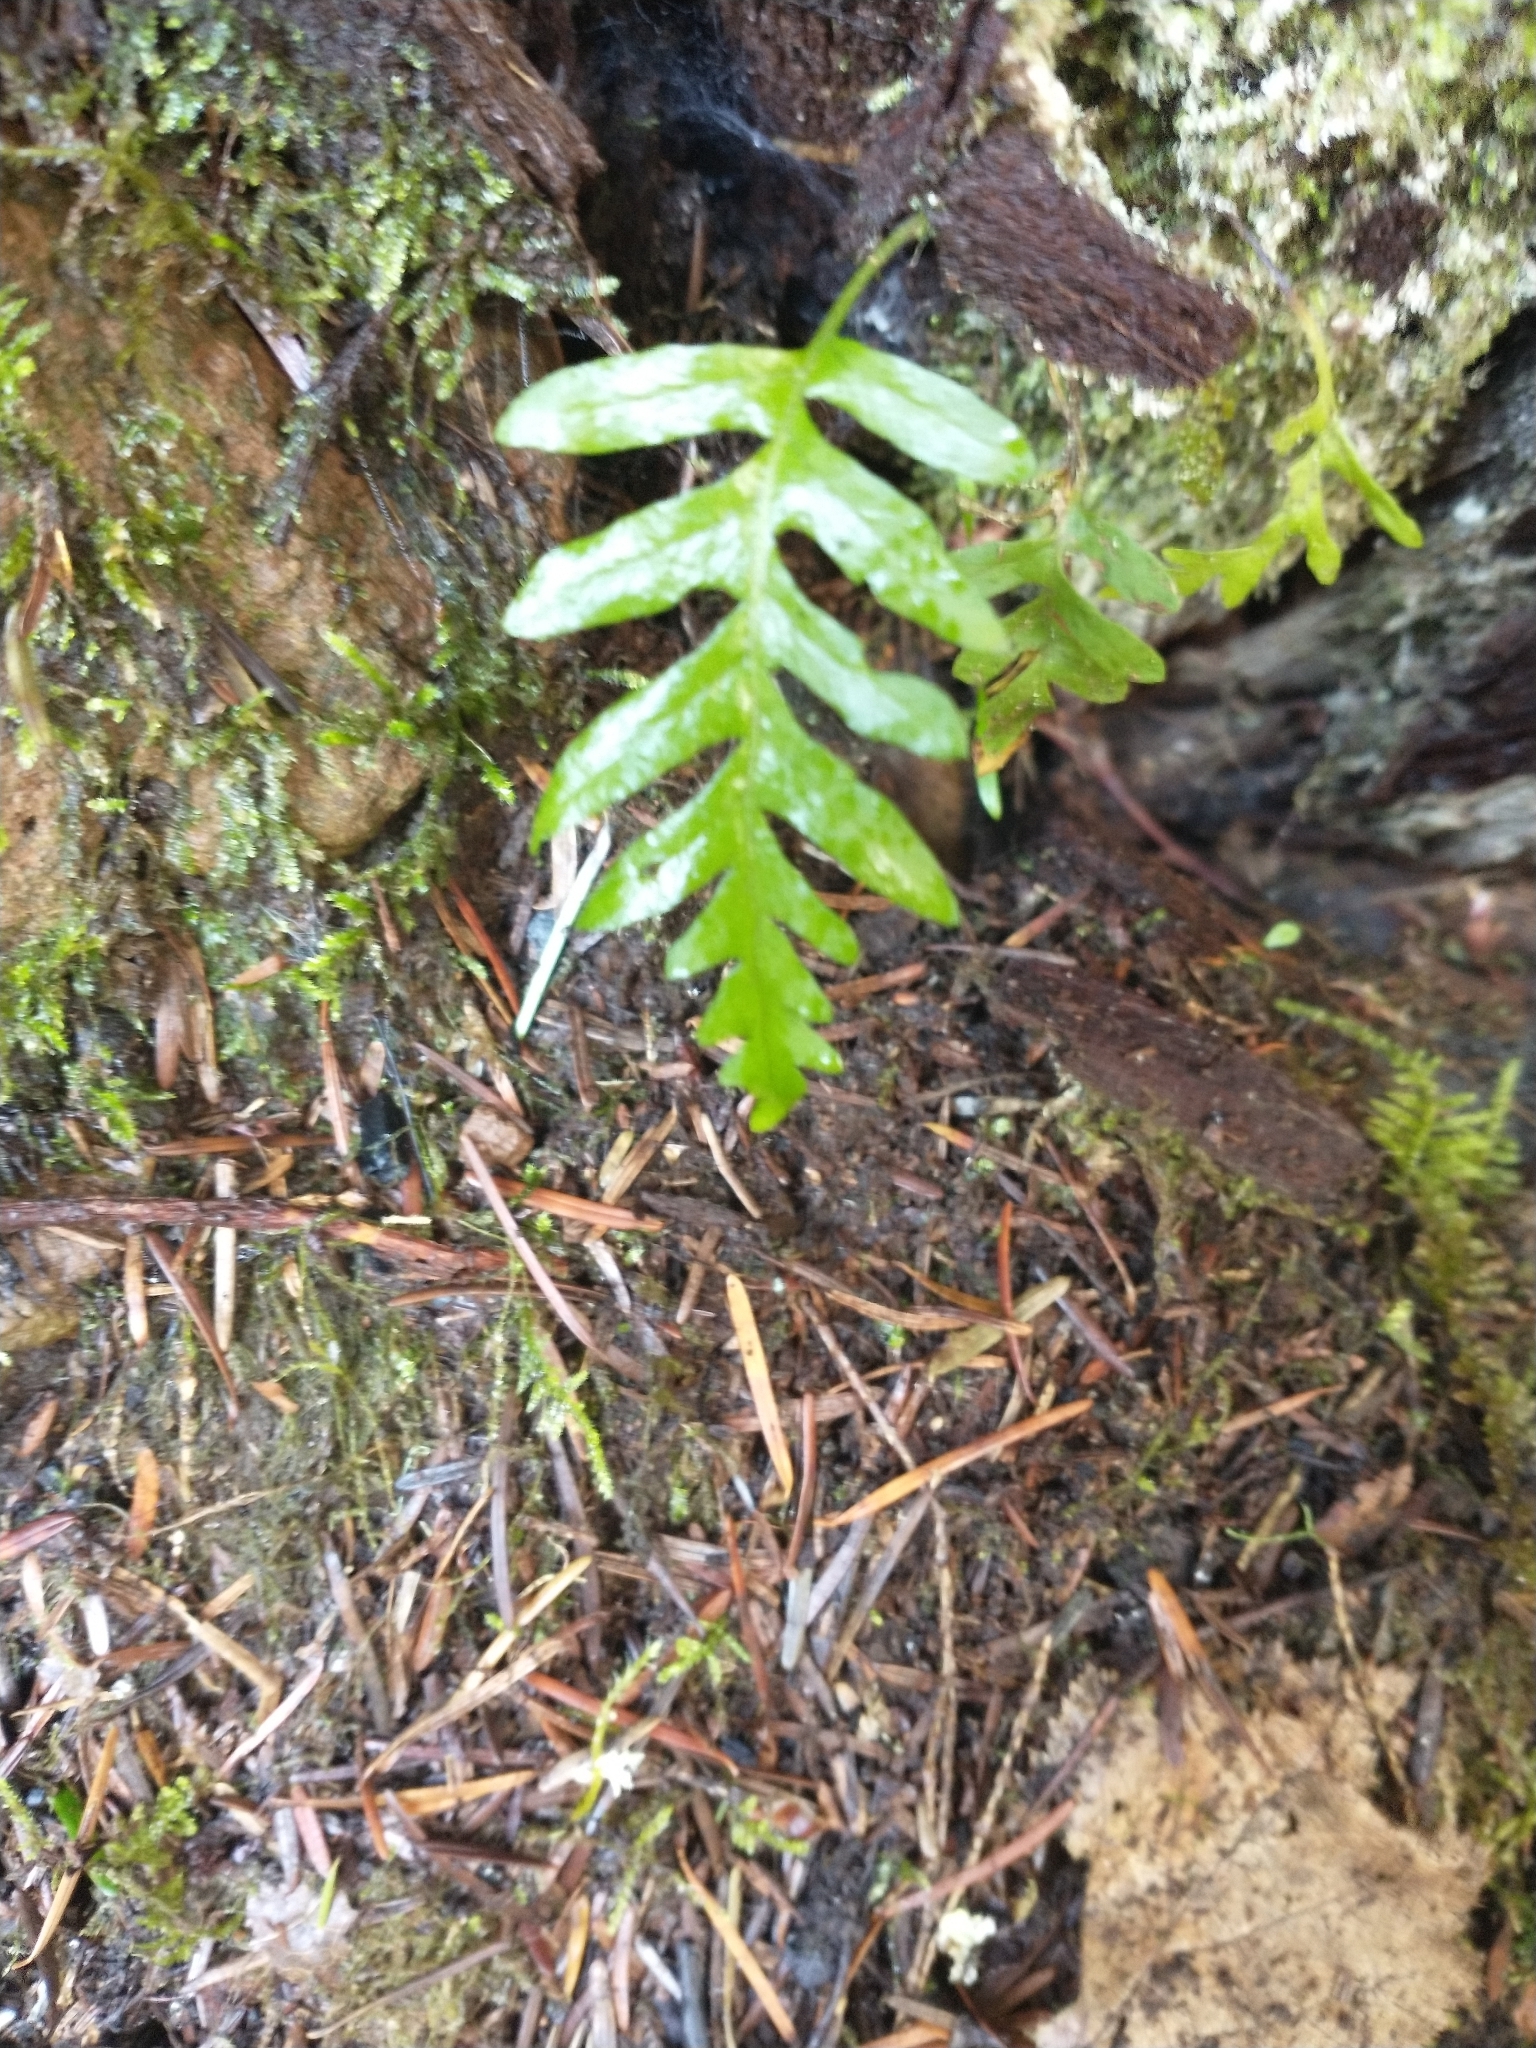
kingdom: Plantae
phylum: Tracheophyta
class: Polypodiopsida
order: Polypodiales
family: Polypodiaceae
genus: Polypodium
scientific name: Polypodium glycyrrhiza
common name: Licorice fern
